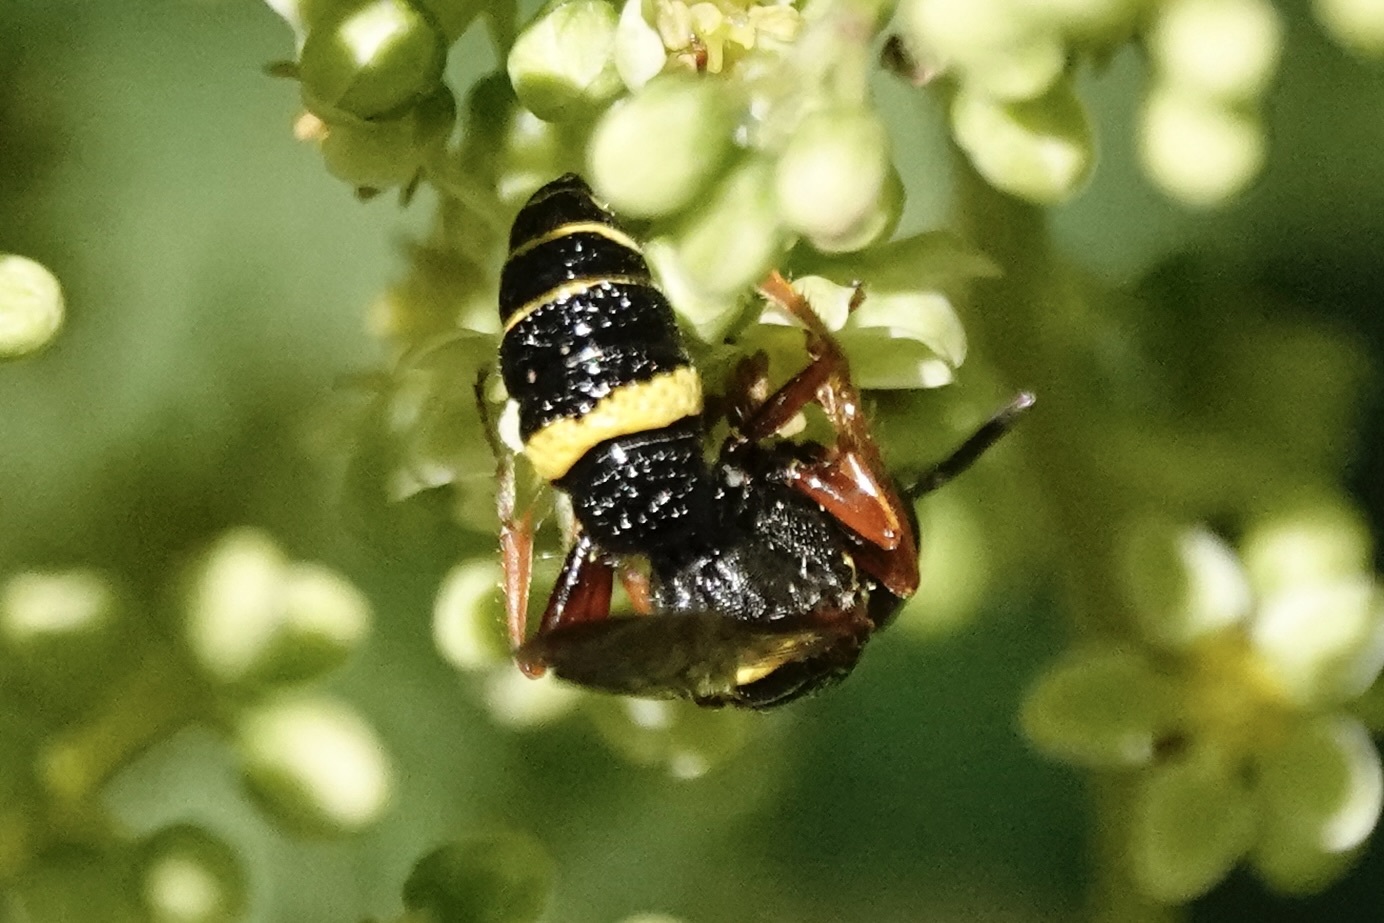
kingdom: Animalia
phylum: Arthropoda
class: Insecta
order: Hymenoptera
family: Crabronidae
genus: Philanthus
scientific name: Philanthus gibbosus
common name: Humped beewolf
